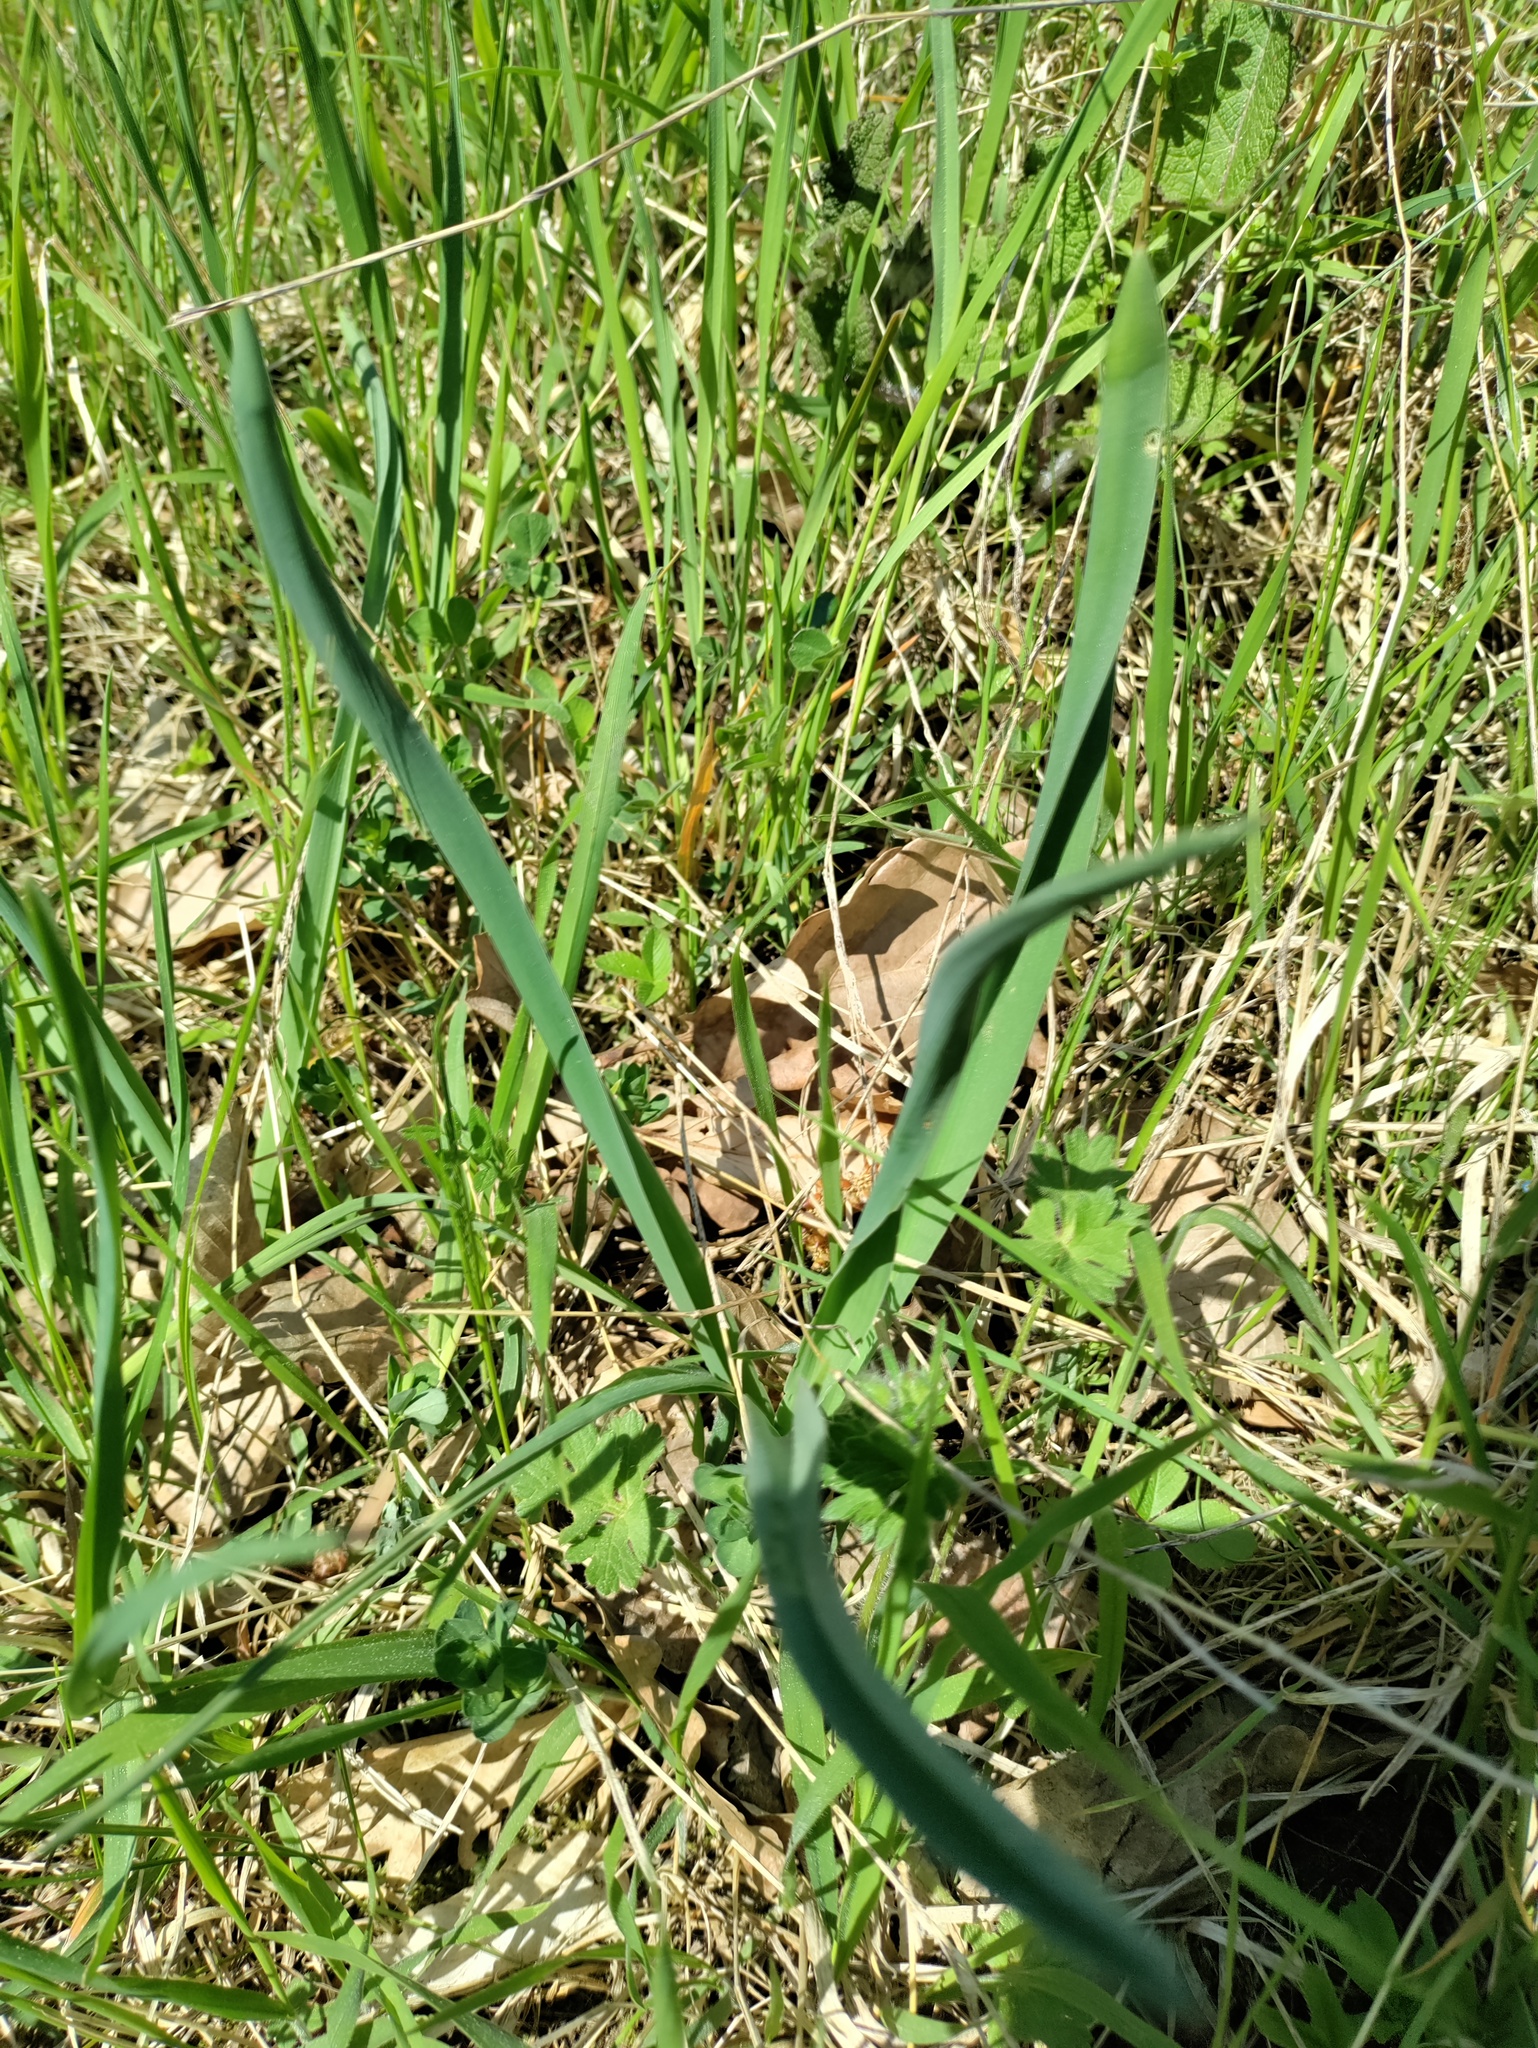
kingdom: Plantae
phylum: Tracheophyta
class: Liliopsida
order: Asparagales
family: Asparagaceae
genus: Muscari
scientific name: Muscari comosum
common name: Tassel hyacinth
